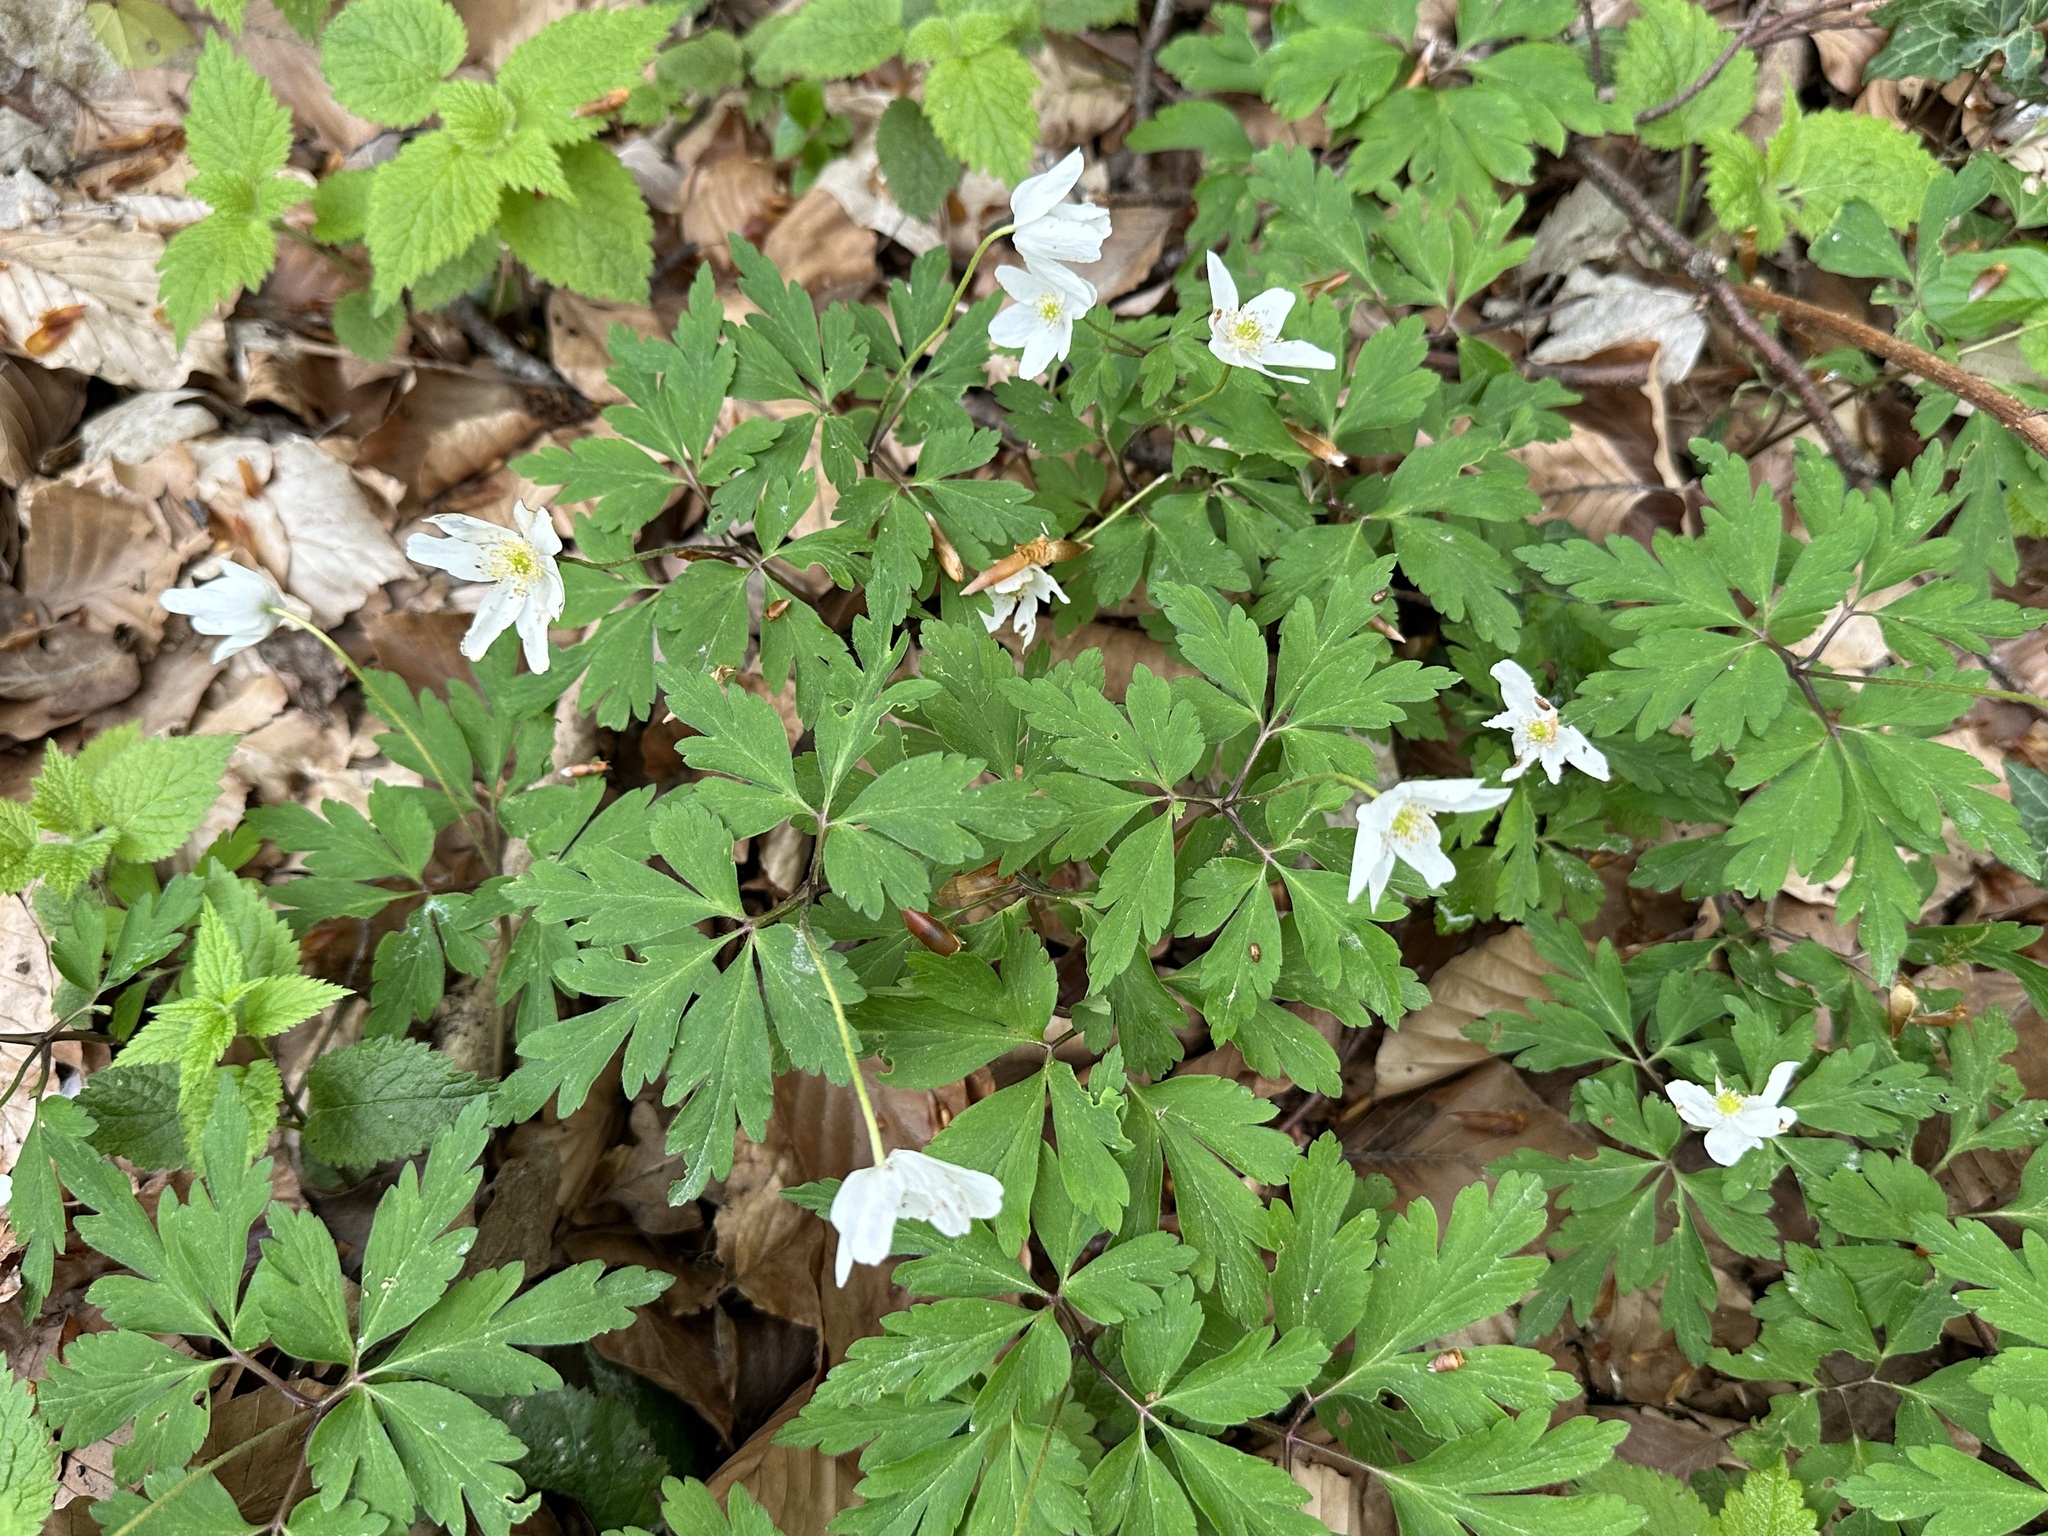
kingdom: Plantae
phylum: Tracheophyta
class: Magnoliopsida
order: Ranunculales
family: Ranunculaceae
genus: Anemone
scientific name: Anemone nemorosa
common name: Wood anemone
